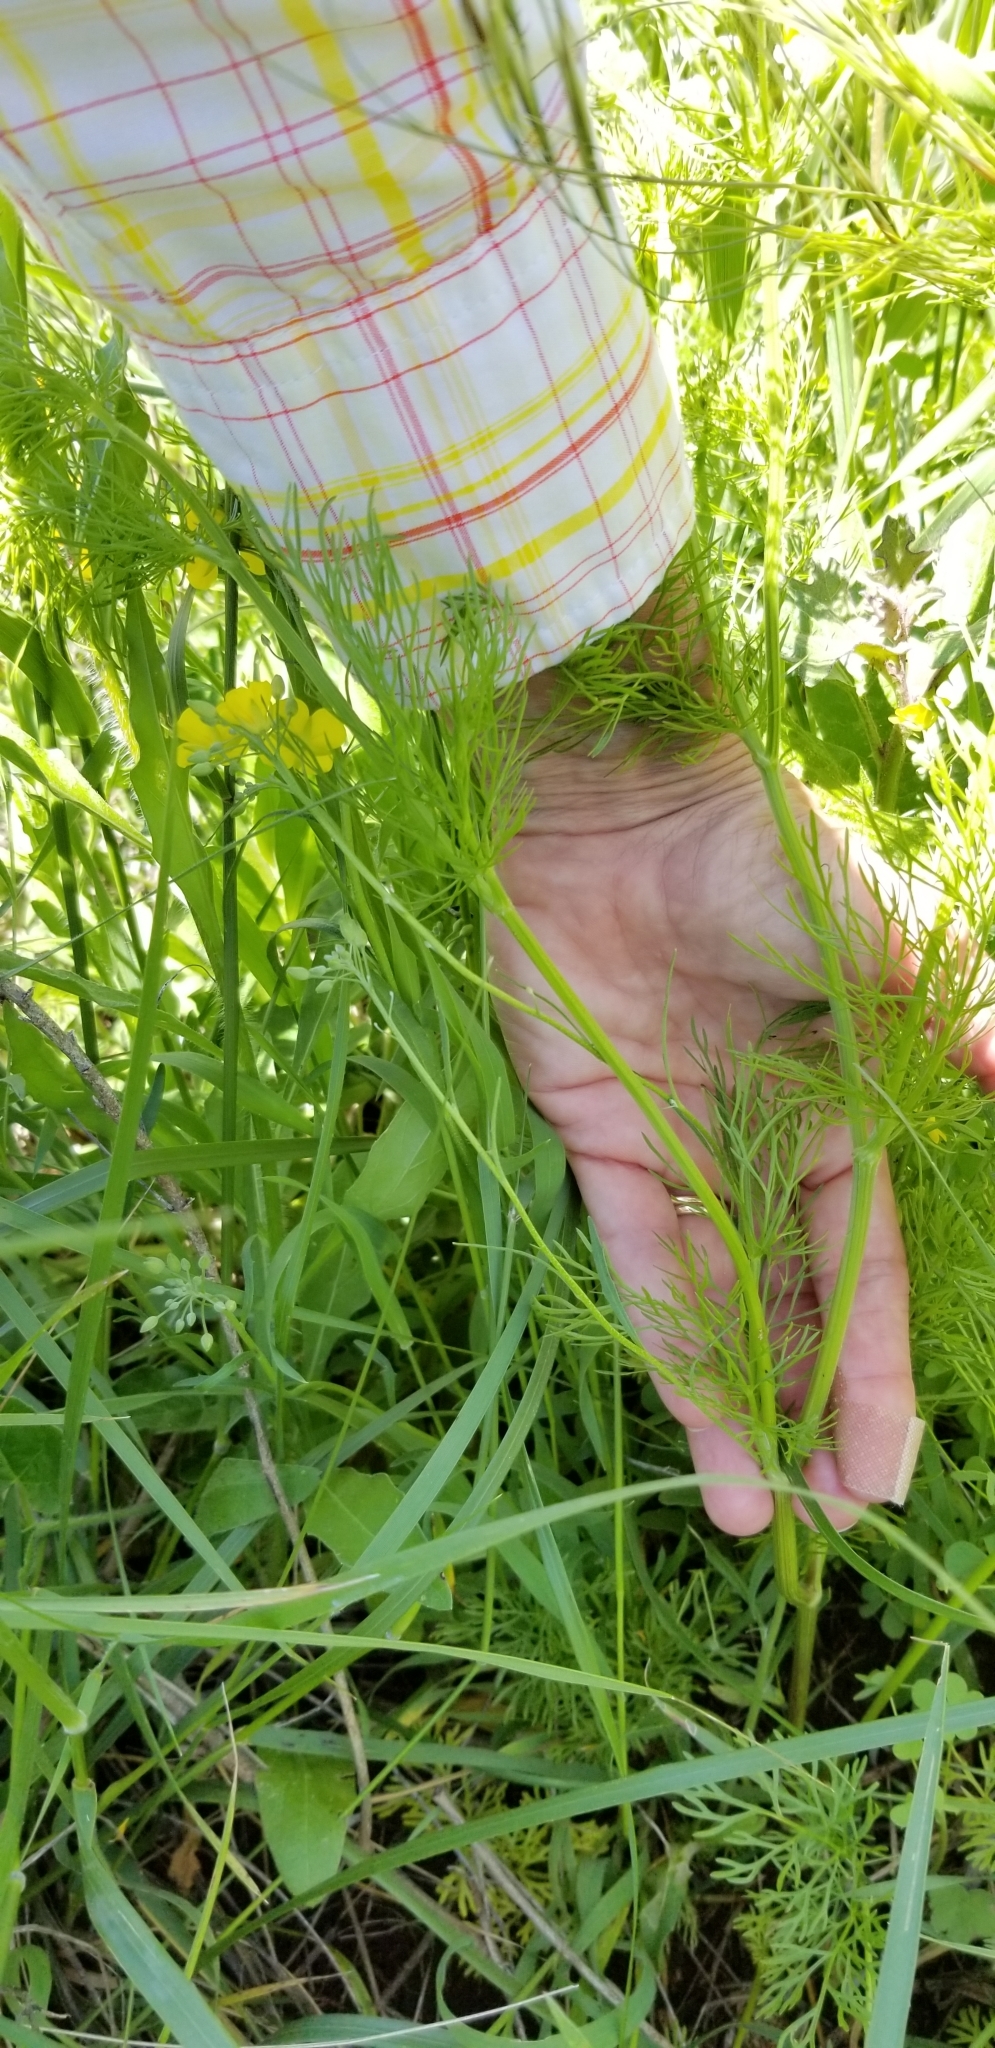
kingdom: Plantae
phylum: Tracheophyta
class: Magnoliopsida
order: Apiales
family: Apiaceae
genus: Atrema
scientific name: Atrema americanum
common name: Prairie-bishop
